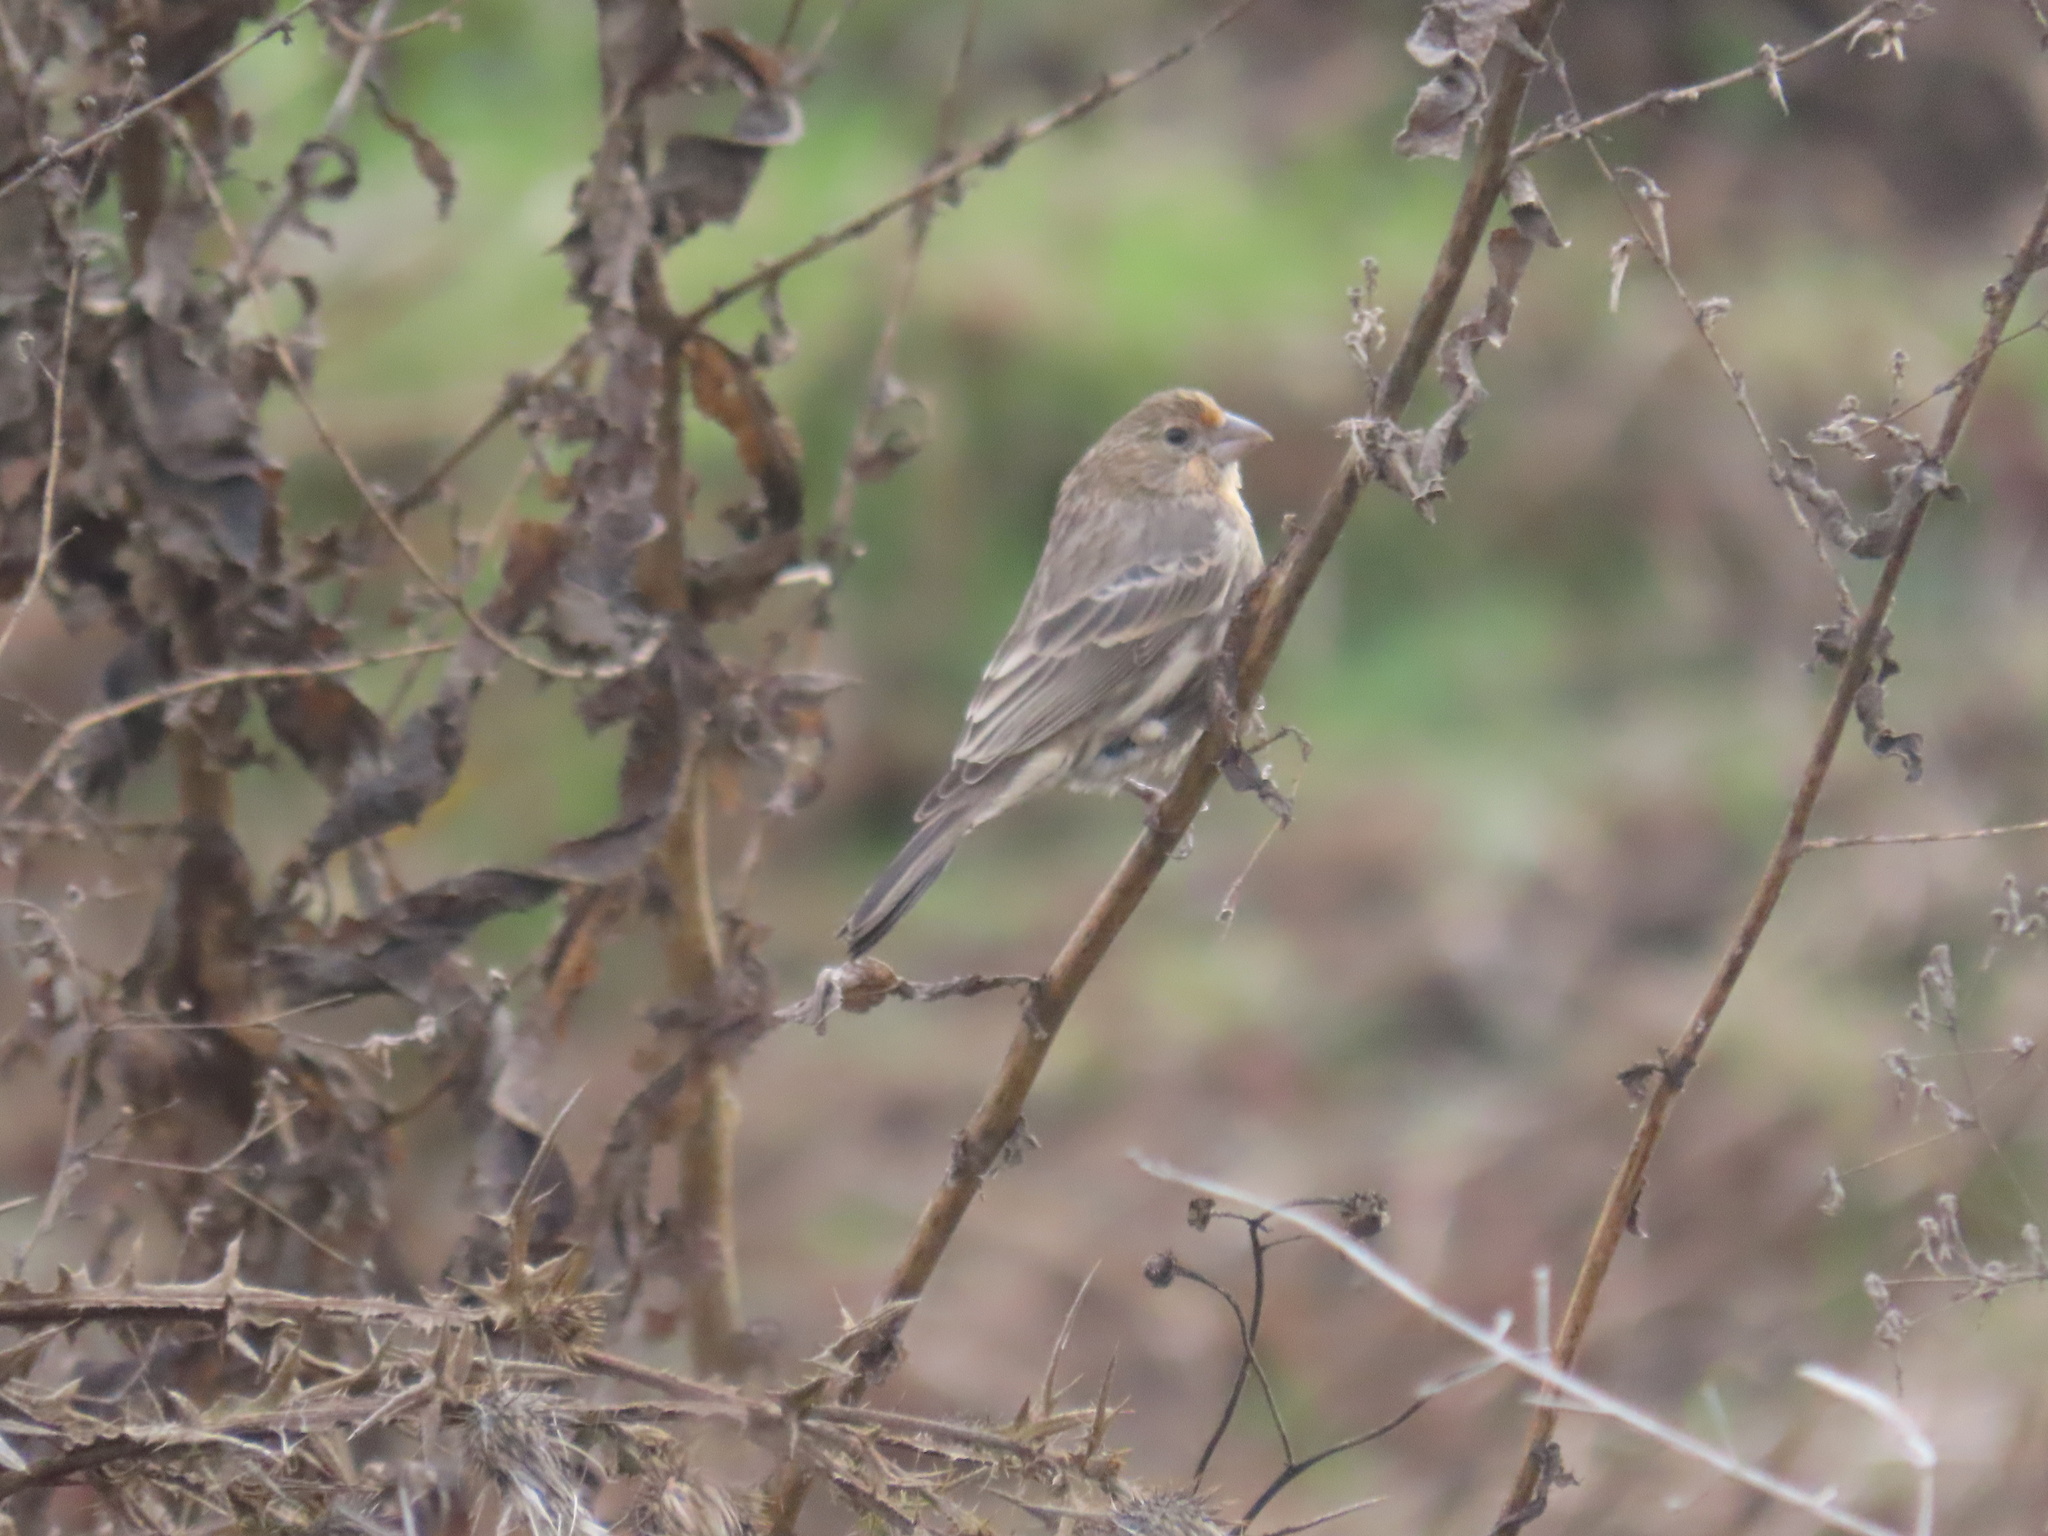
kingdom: Animalia
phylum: Chordata
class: Aves
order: Passeriformes
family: Fringillidae
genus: Haemorhous
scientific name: Haemorhous mexicanus
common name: House finch
